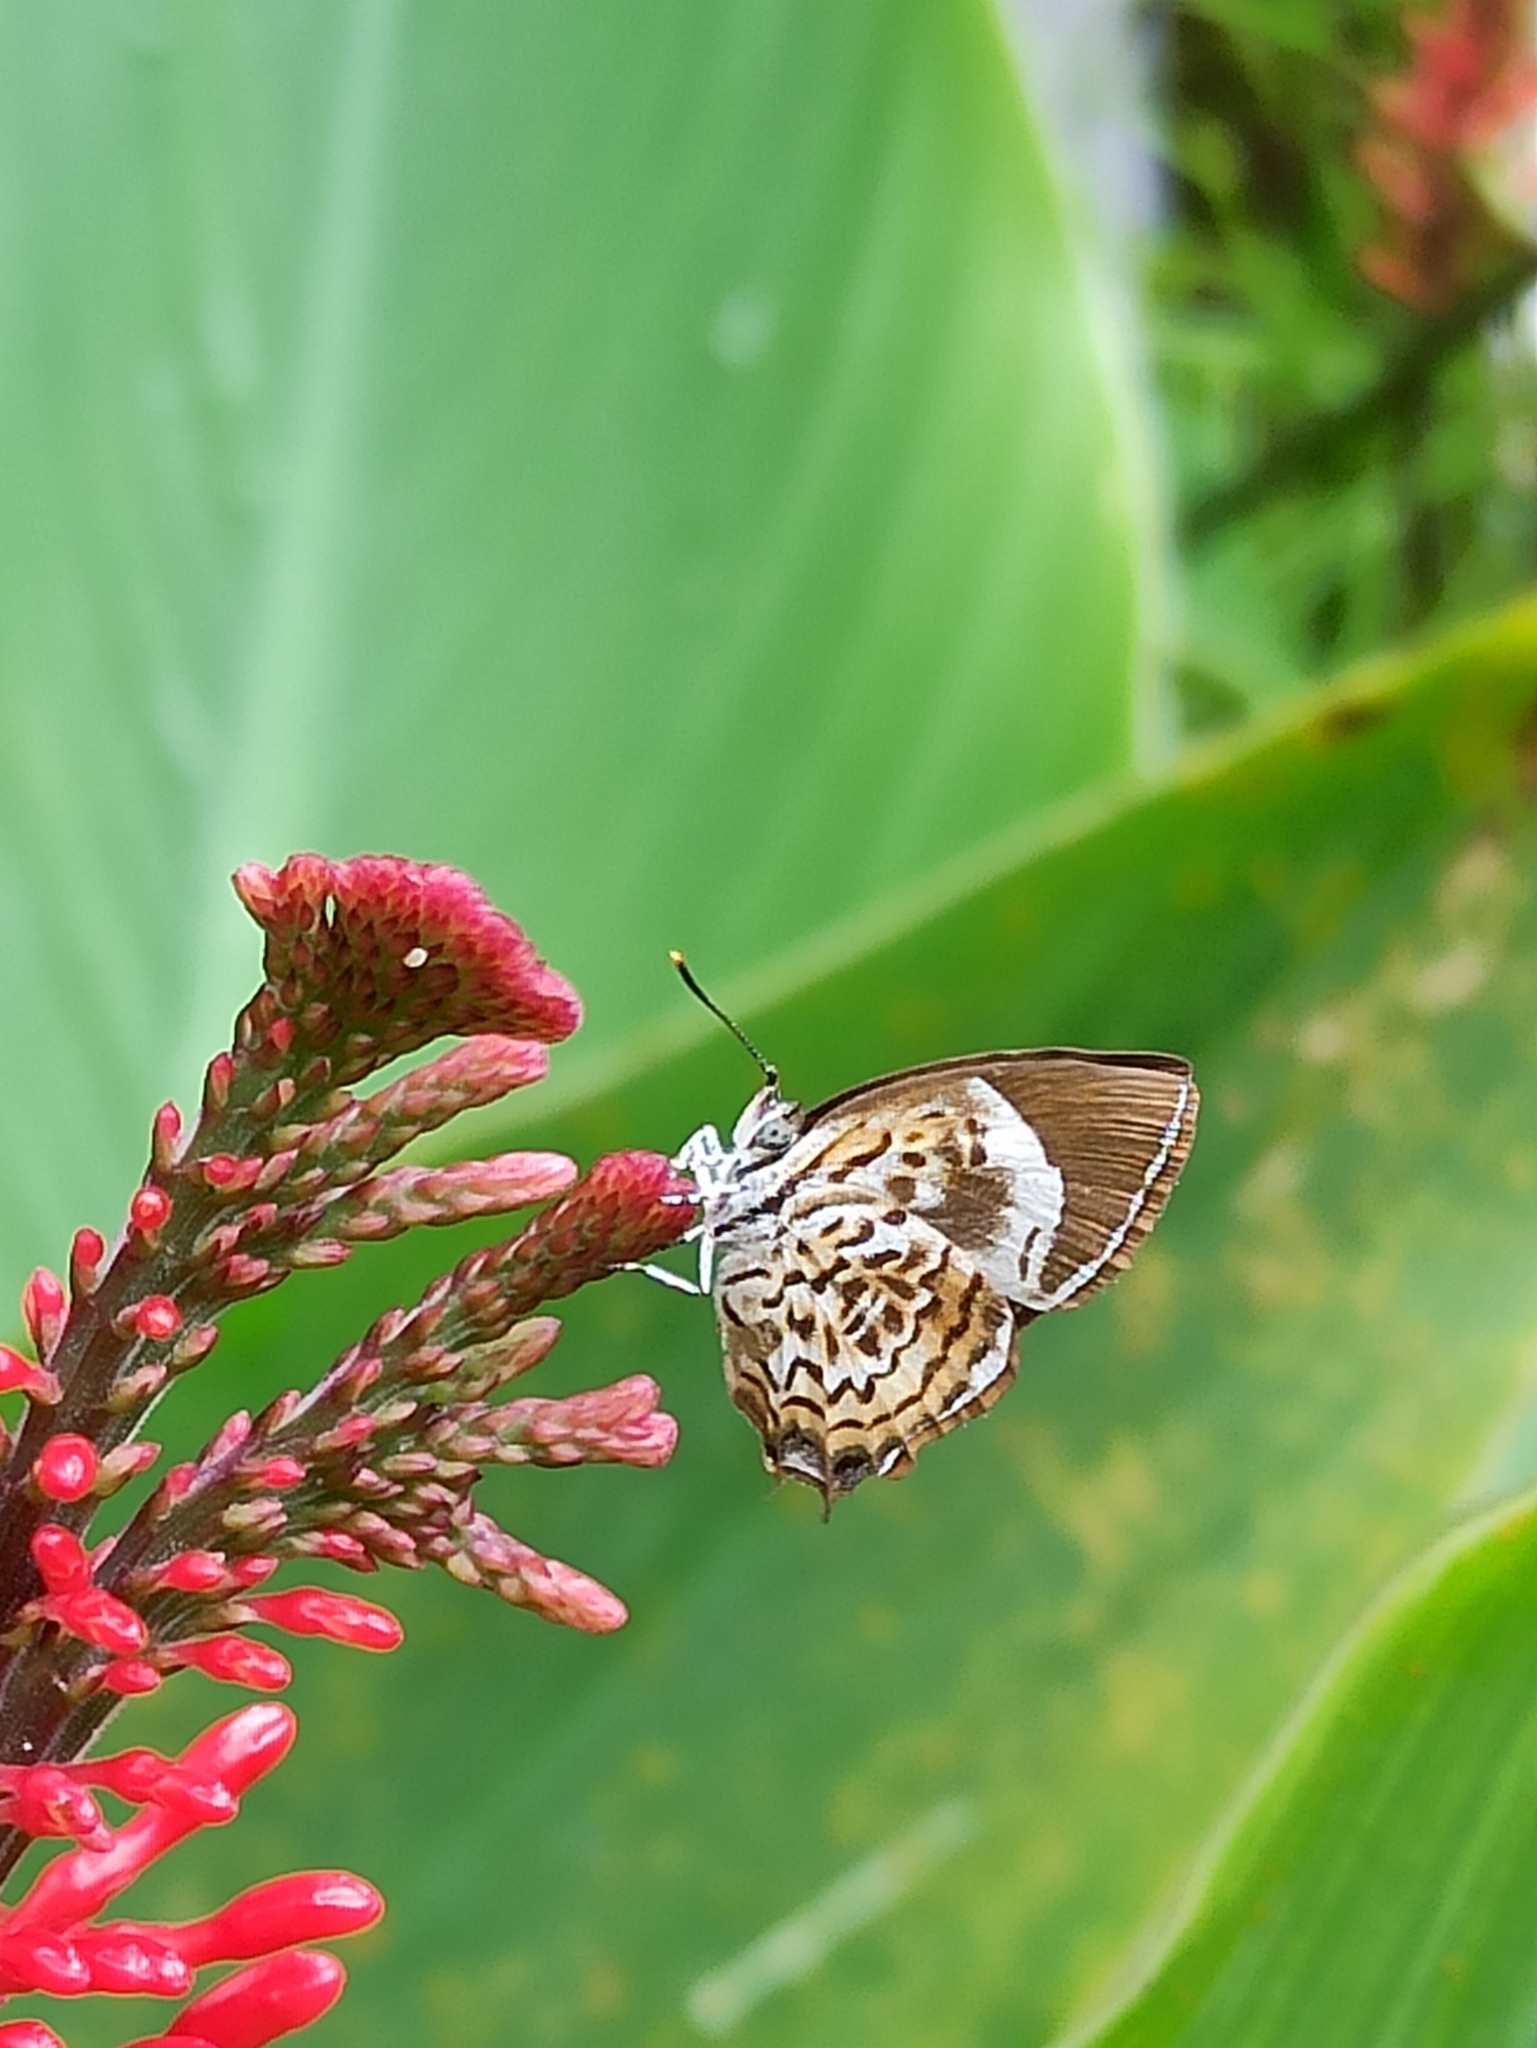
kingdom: Animalia
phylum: Arthropoda
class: Insecta
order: Lepidoptera
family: Lycaenidae
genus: Rathinda
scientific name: Rathinda amor
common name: Monkey puzzle
